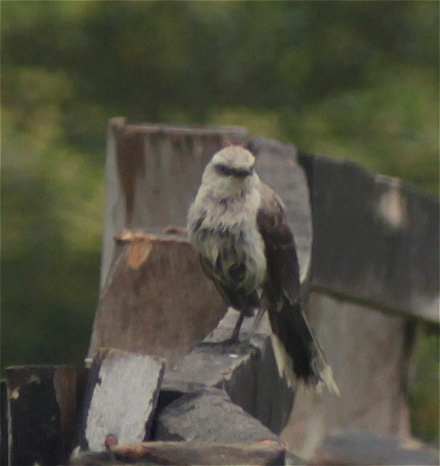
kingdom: Animalia
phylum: Chordata
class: Aves
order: Passeriformes
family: Mimidae
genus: Mimus
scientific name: Mimus gilvus
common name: Tropical mockingbird
